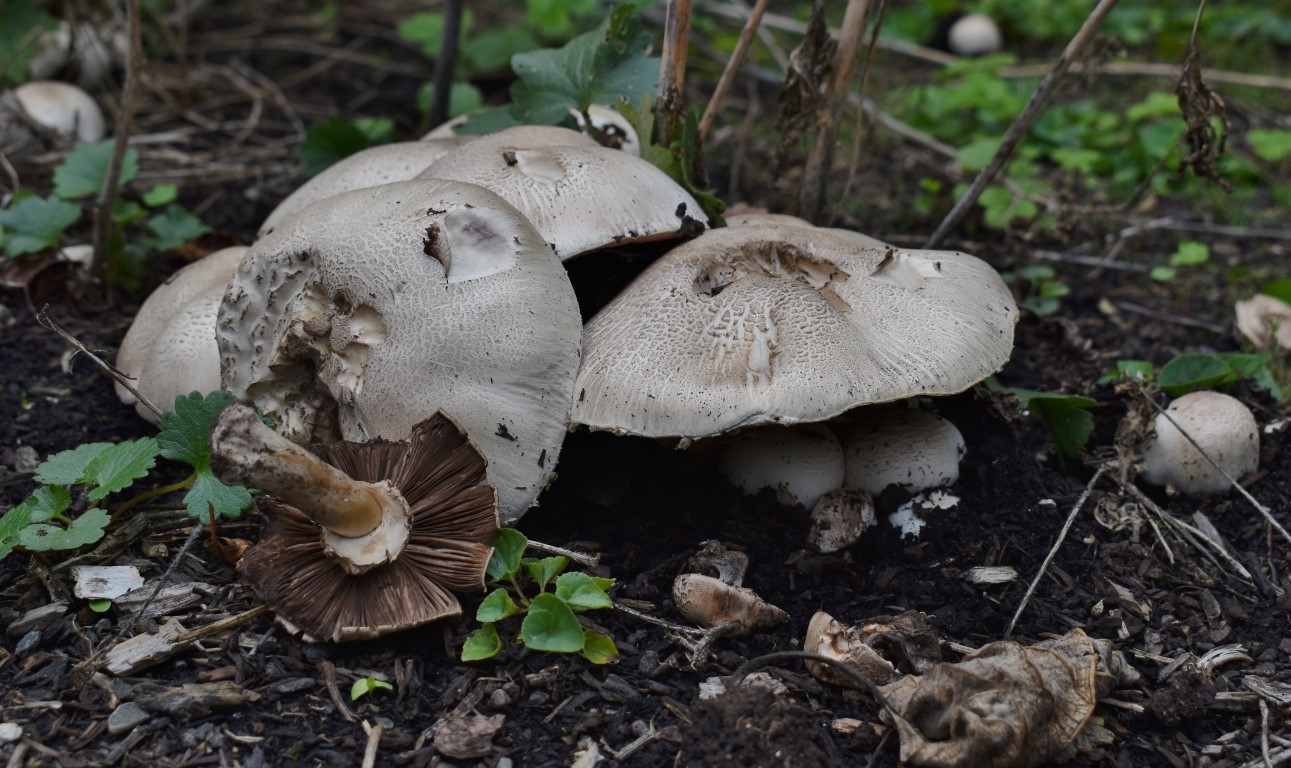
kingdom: Fungi
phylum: Basidiomycota
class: Agaricomycetes
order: Agaricales
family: Agaricaceae
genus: Agaricus
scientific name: Agaricus xanthodermus
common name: Yellow stainer
